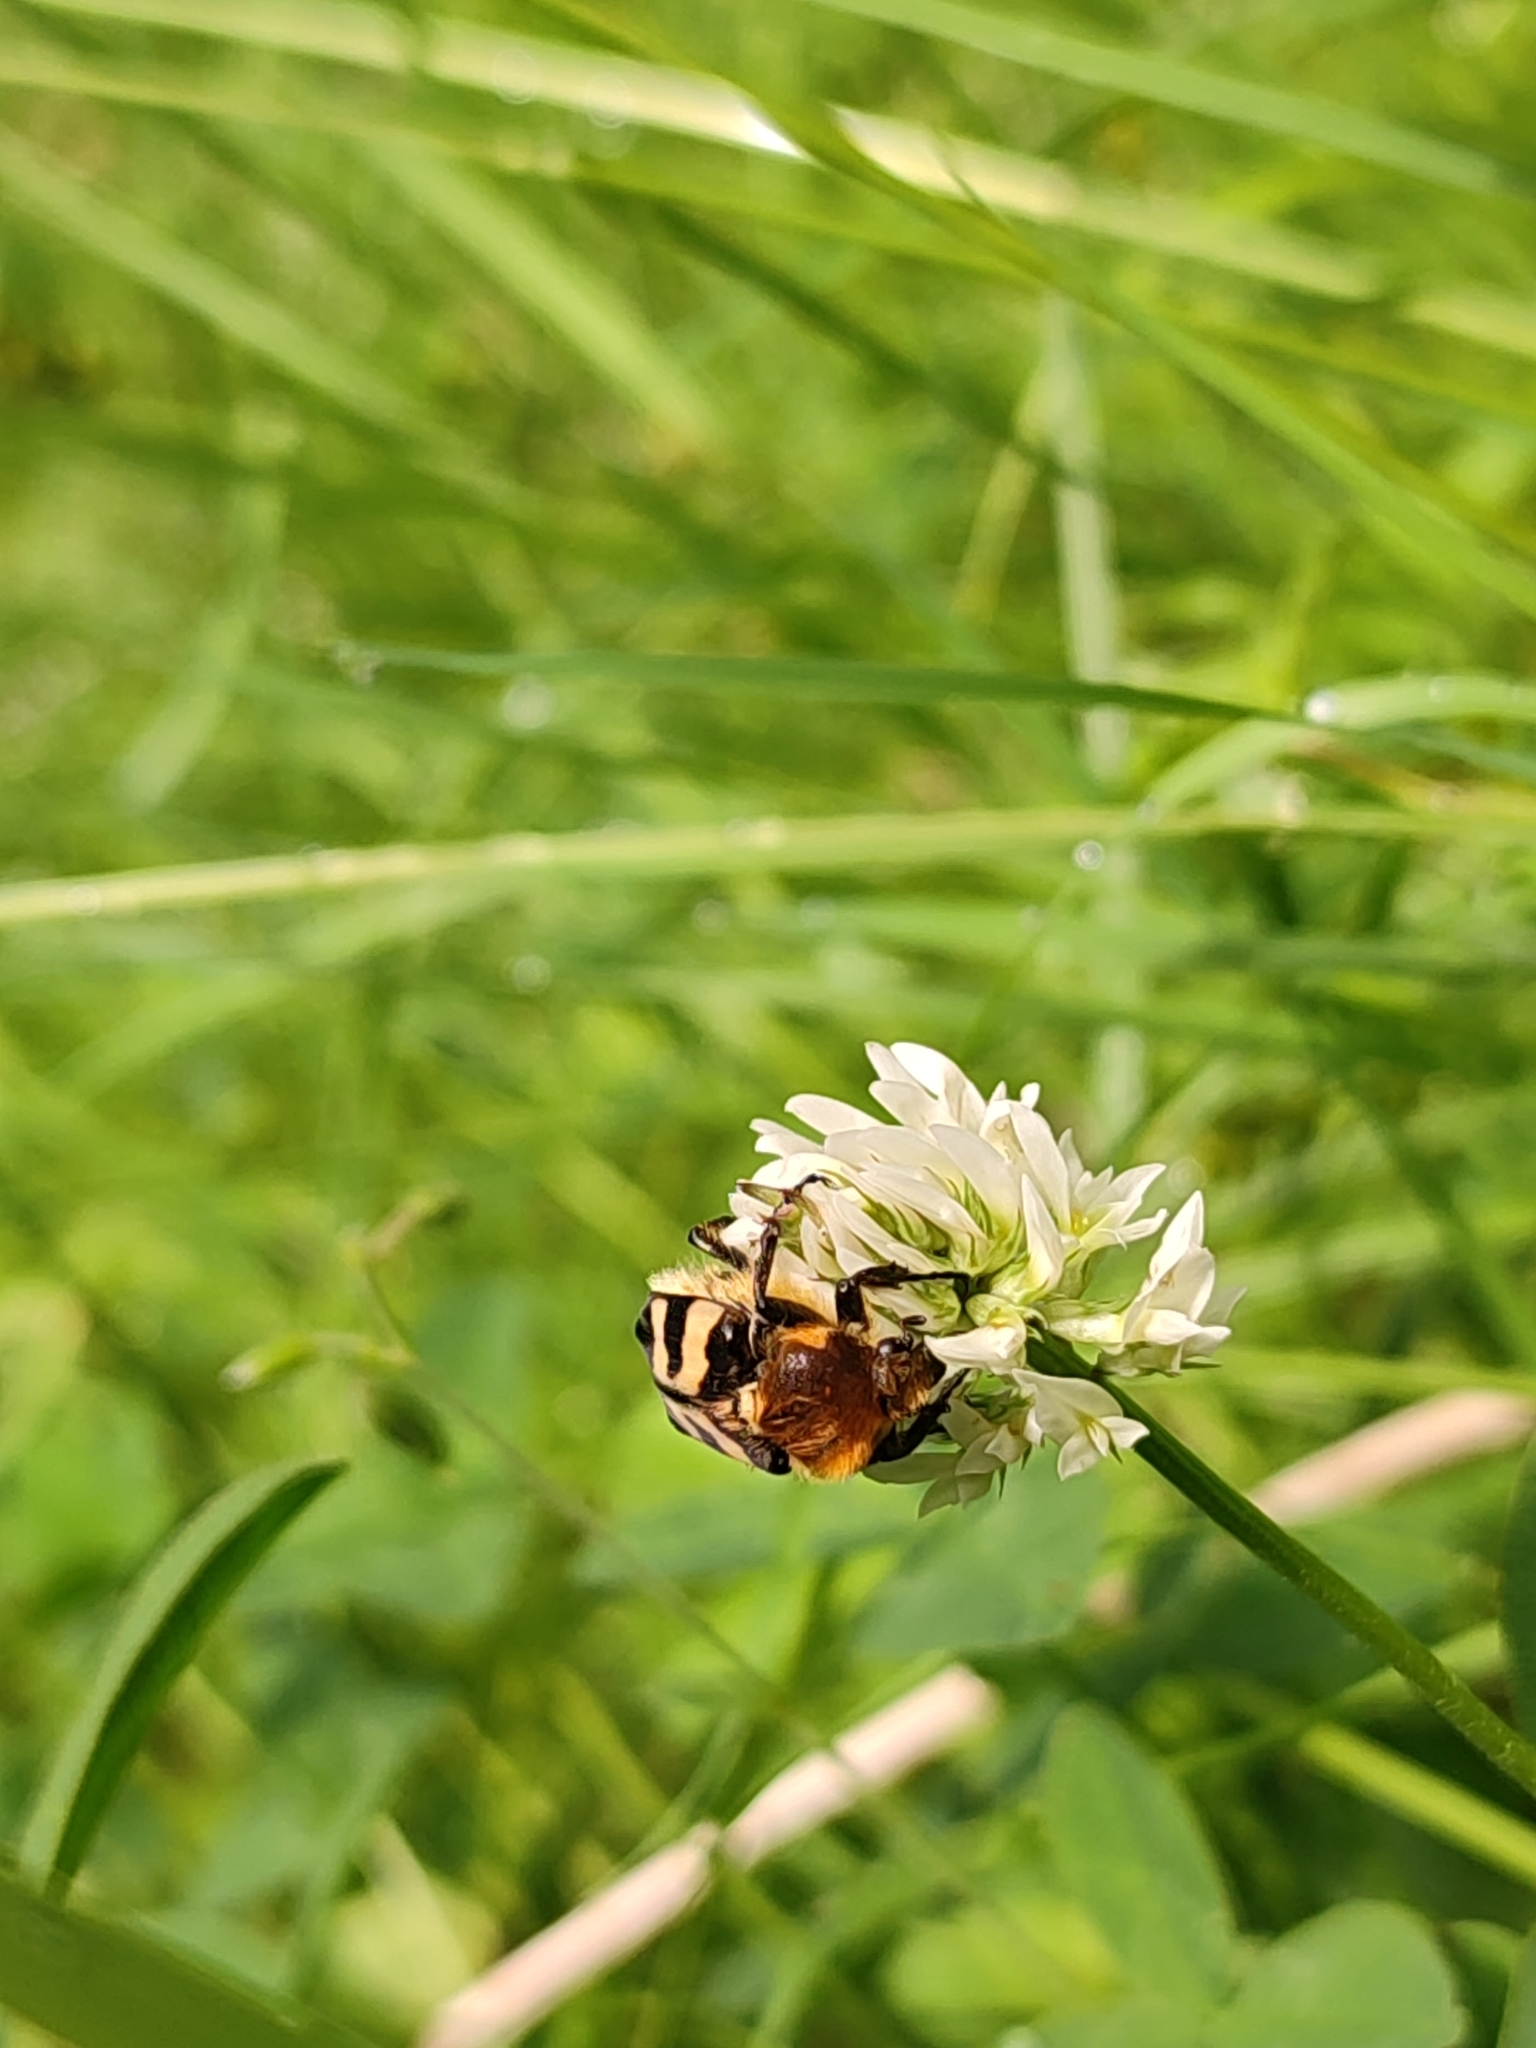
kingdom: Animalia
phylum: Arthropoda
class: Insecta
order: Coleoptera
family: Scarabaeidae
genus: Trichius
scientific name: Trichius fasciatus
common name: Bee beetle
